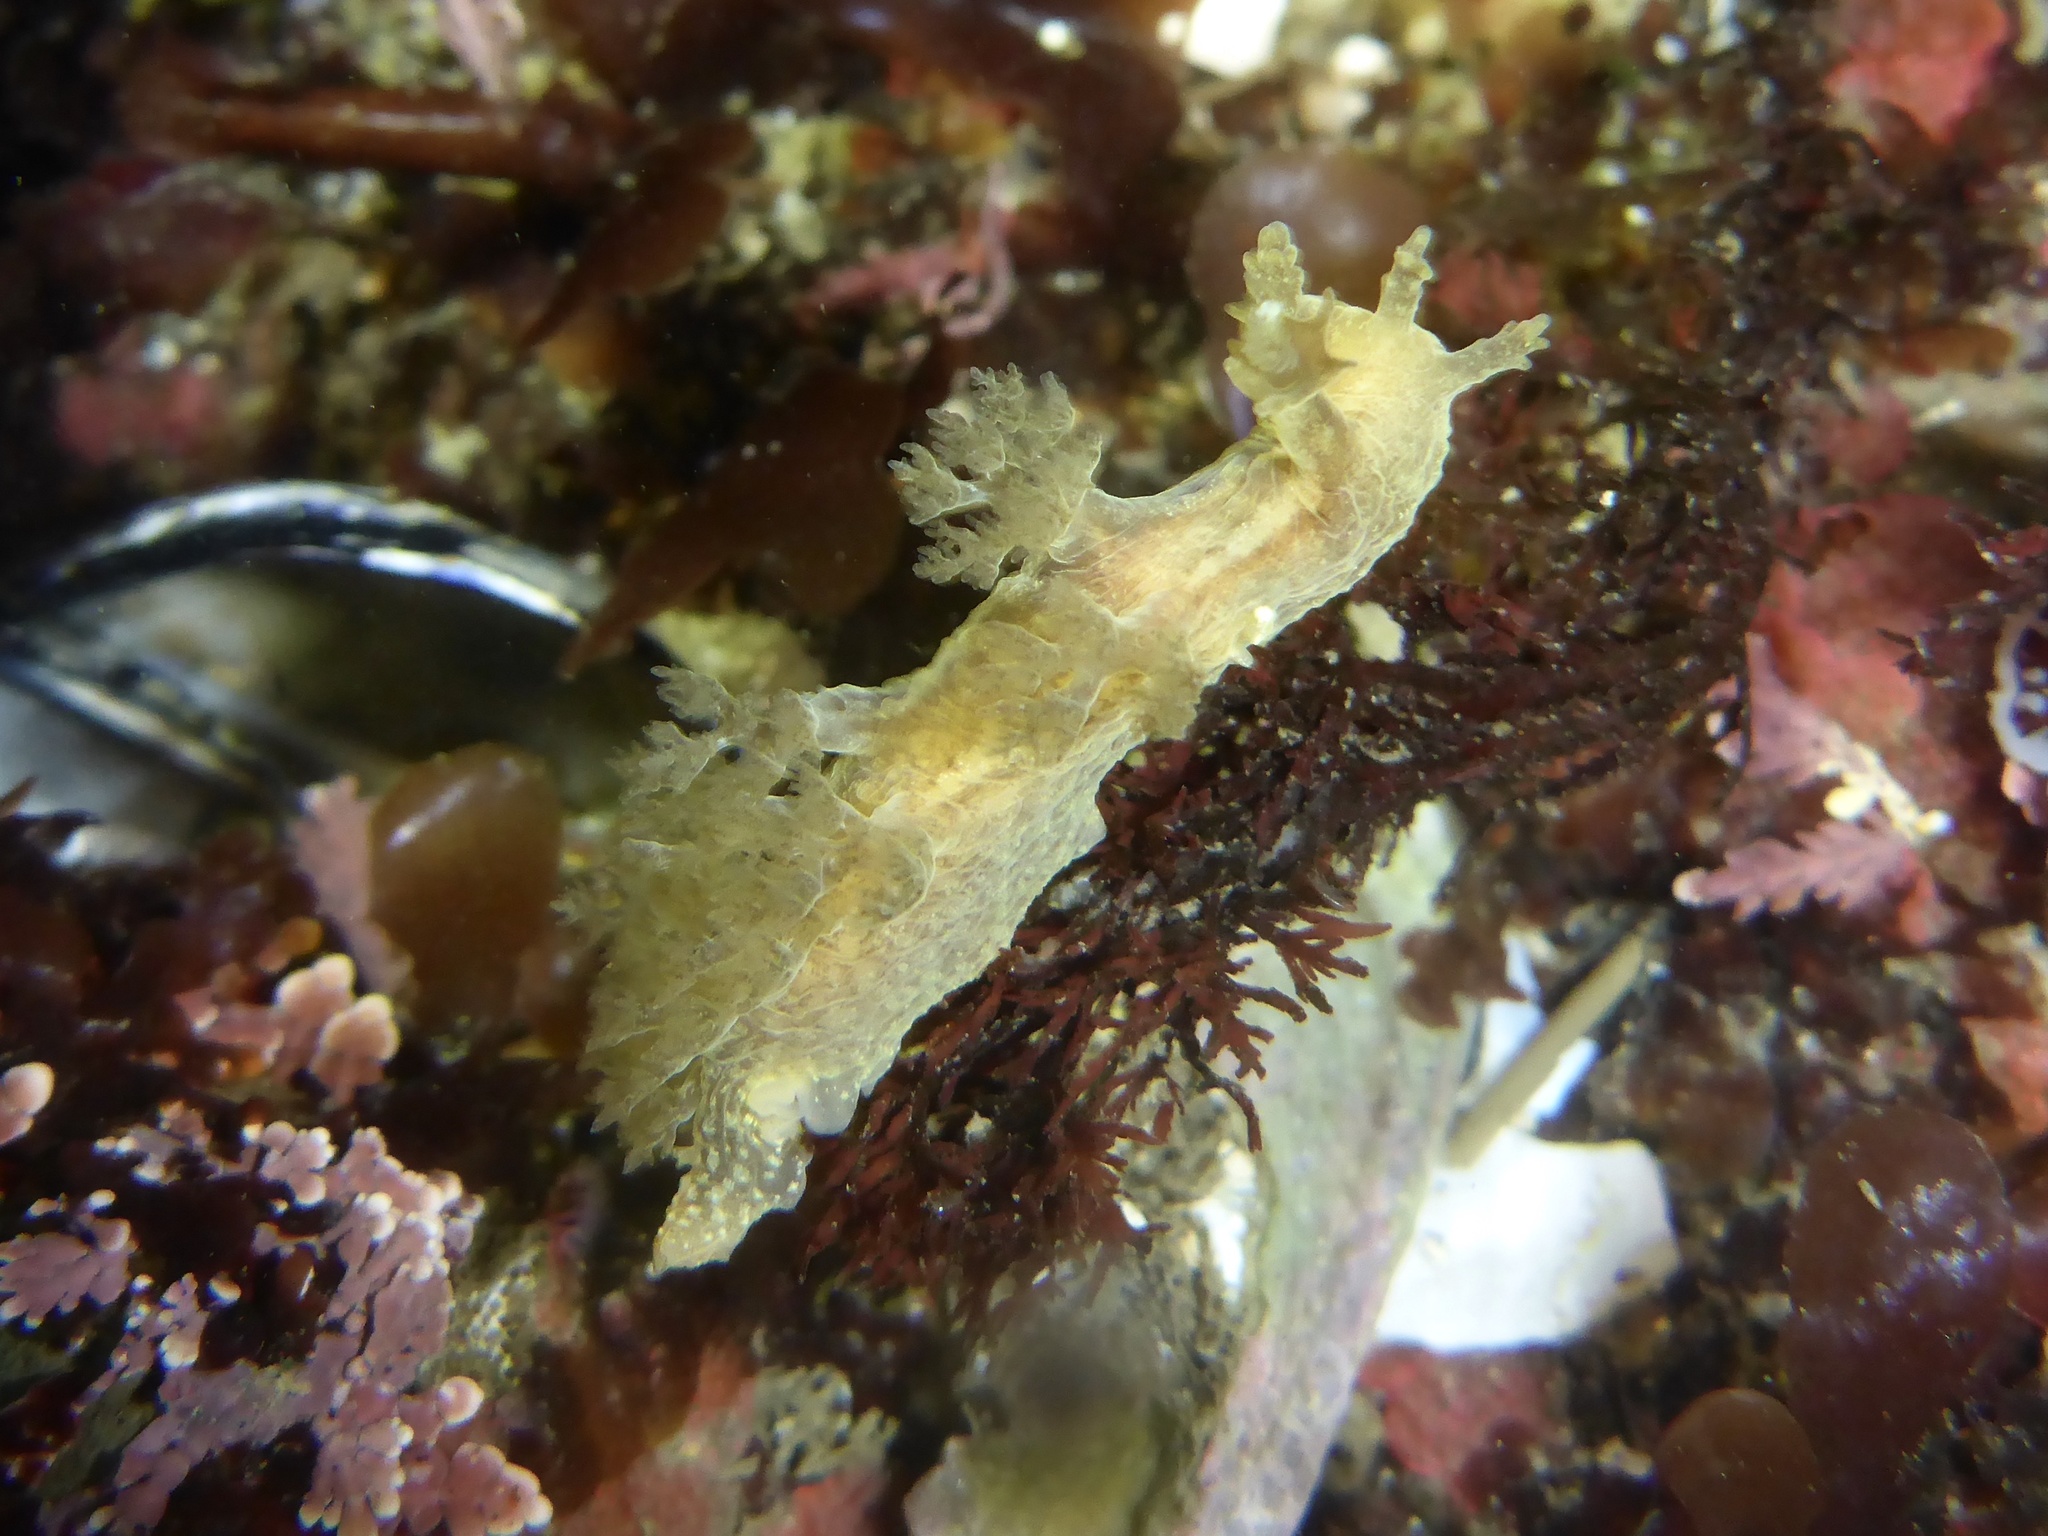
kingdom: Animalia
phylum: Mollusca
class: Gastropoda
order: Nudibranchia
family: Dendronotidae
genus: Dendronotus
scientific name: Dendronotus subramosus
